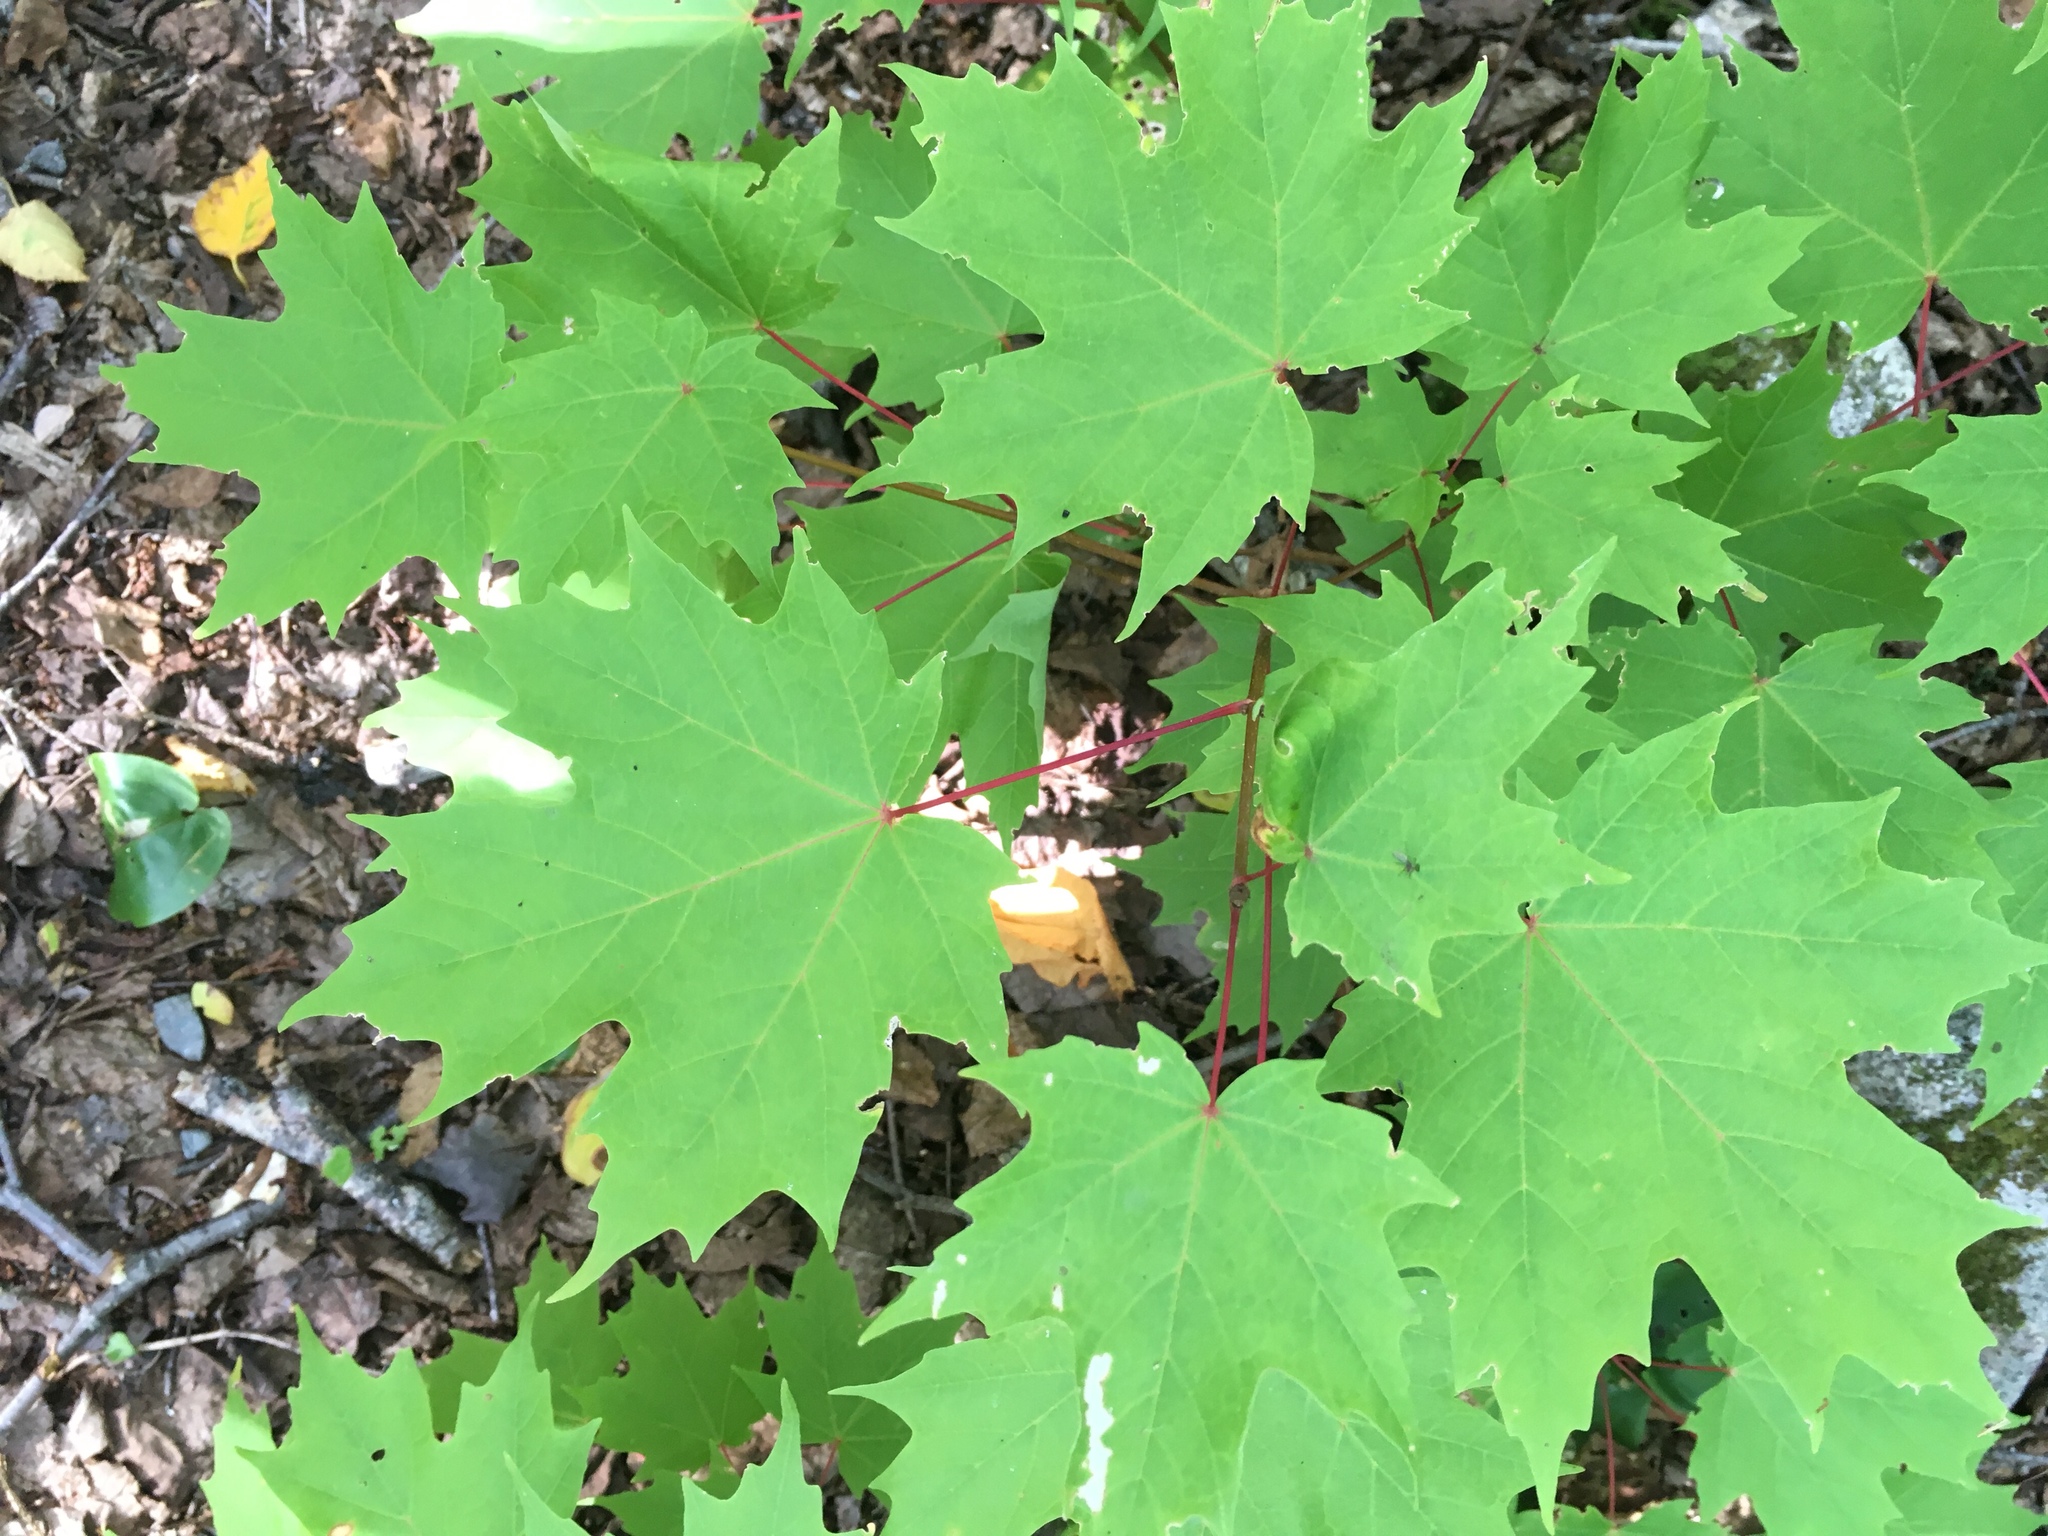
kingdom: Plantae
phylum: Tracheophyta
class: Magnoliopsida
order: Sapindales
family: Sapindaceae
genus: Acer
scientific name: Acer saccharum
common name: Sugar maple
